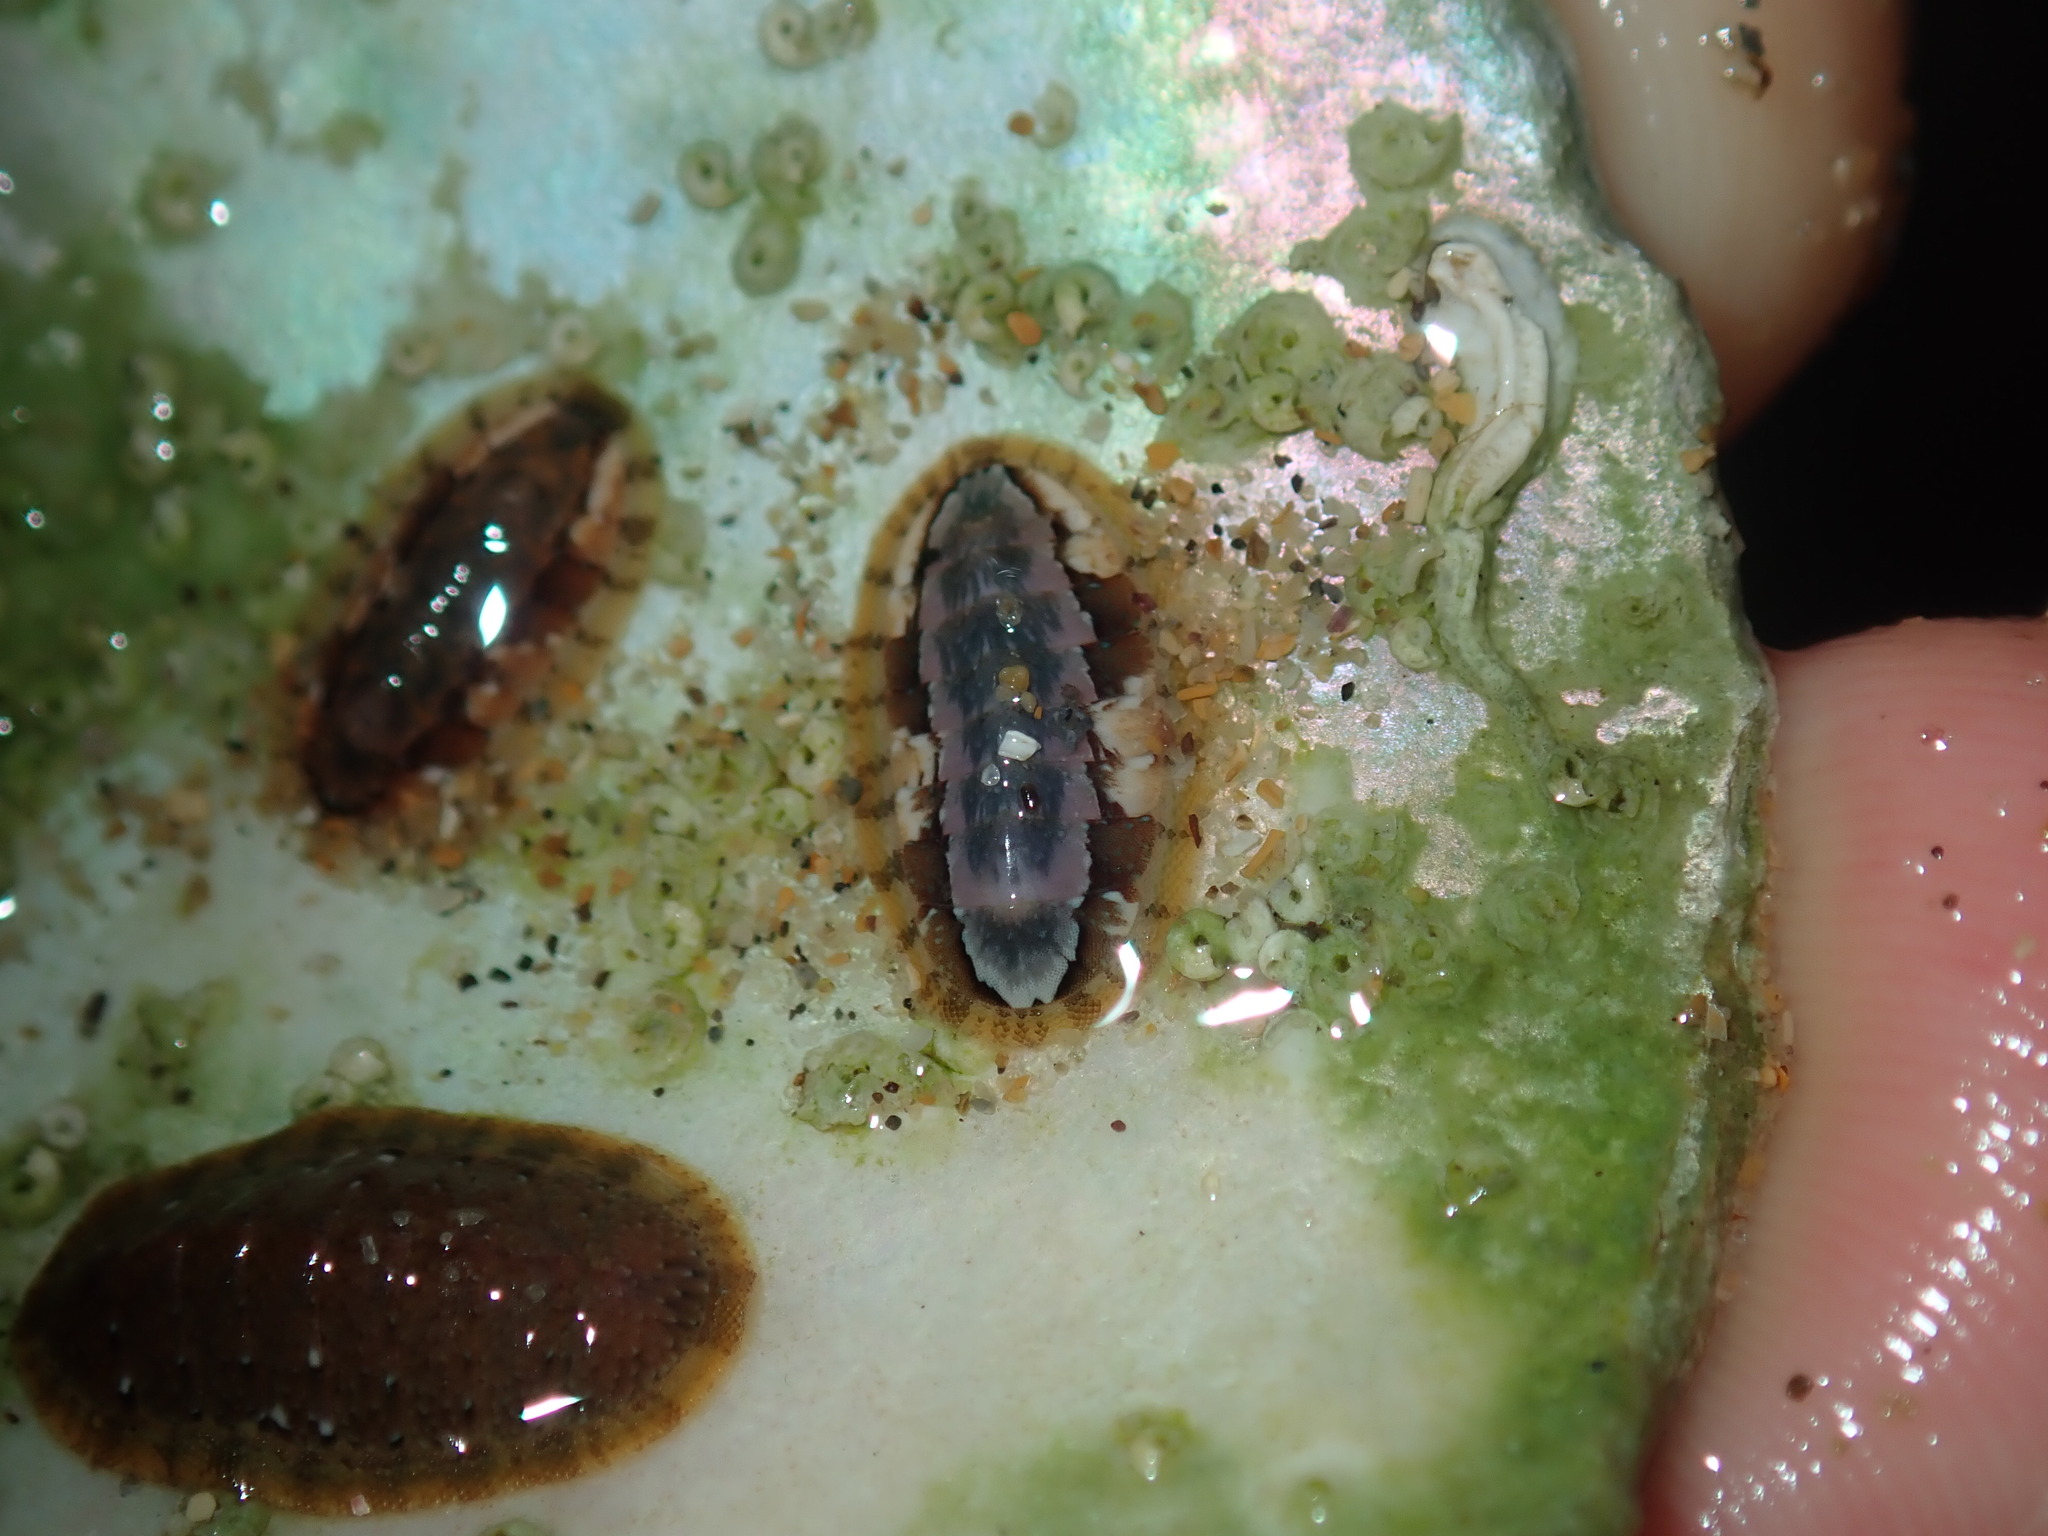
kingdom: Animalia
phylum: Mollusca
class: Polyplacophora
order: Chitonida
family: Ischnochitonidae
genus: Ischnochiton
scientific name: Ischnochiton smaragdinus
